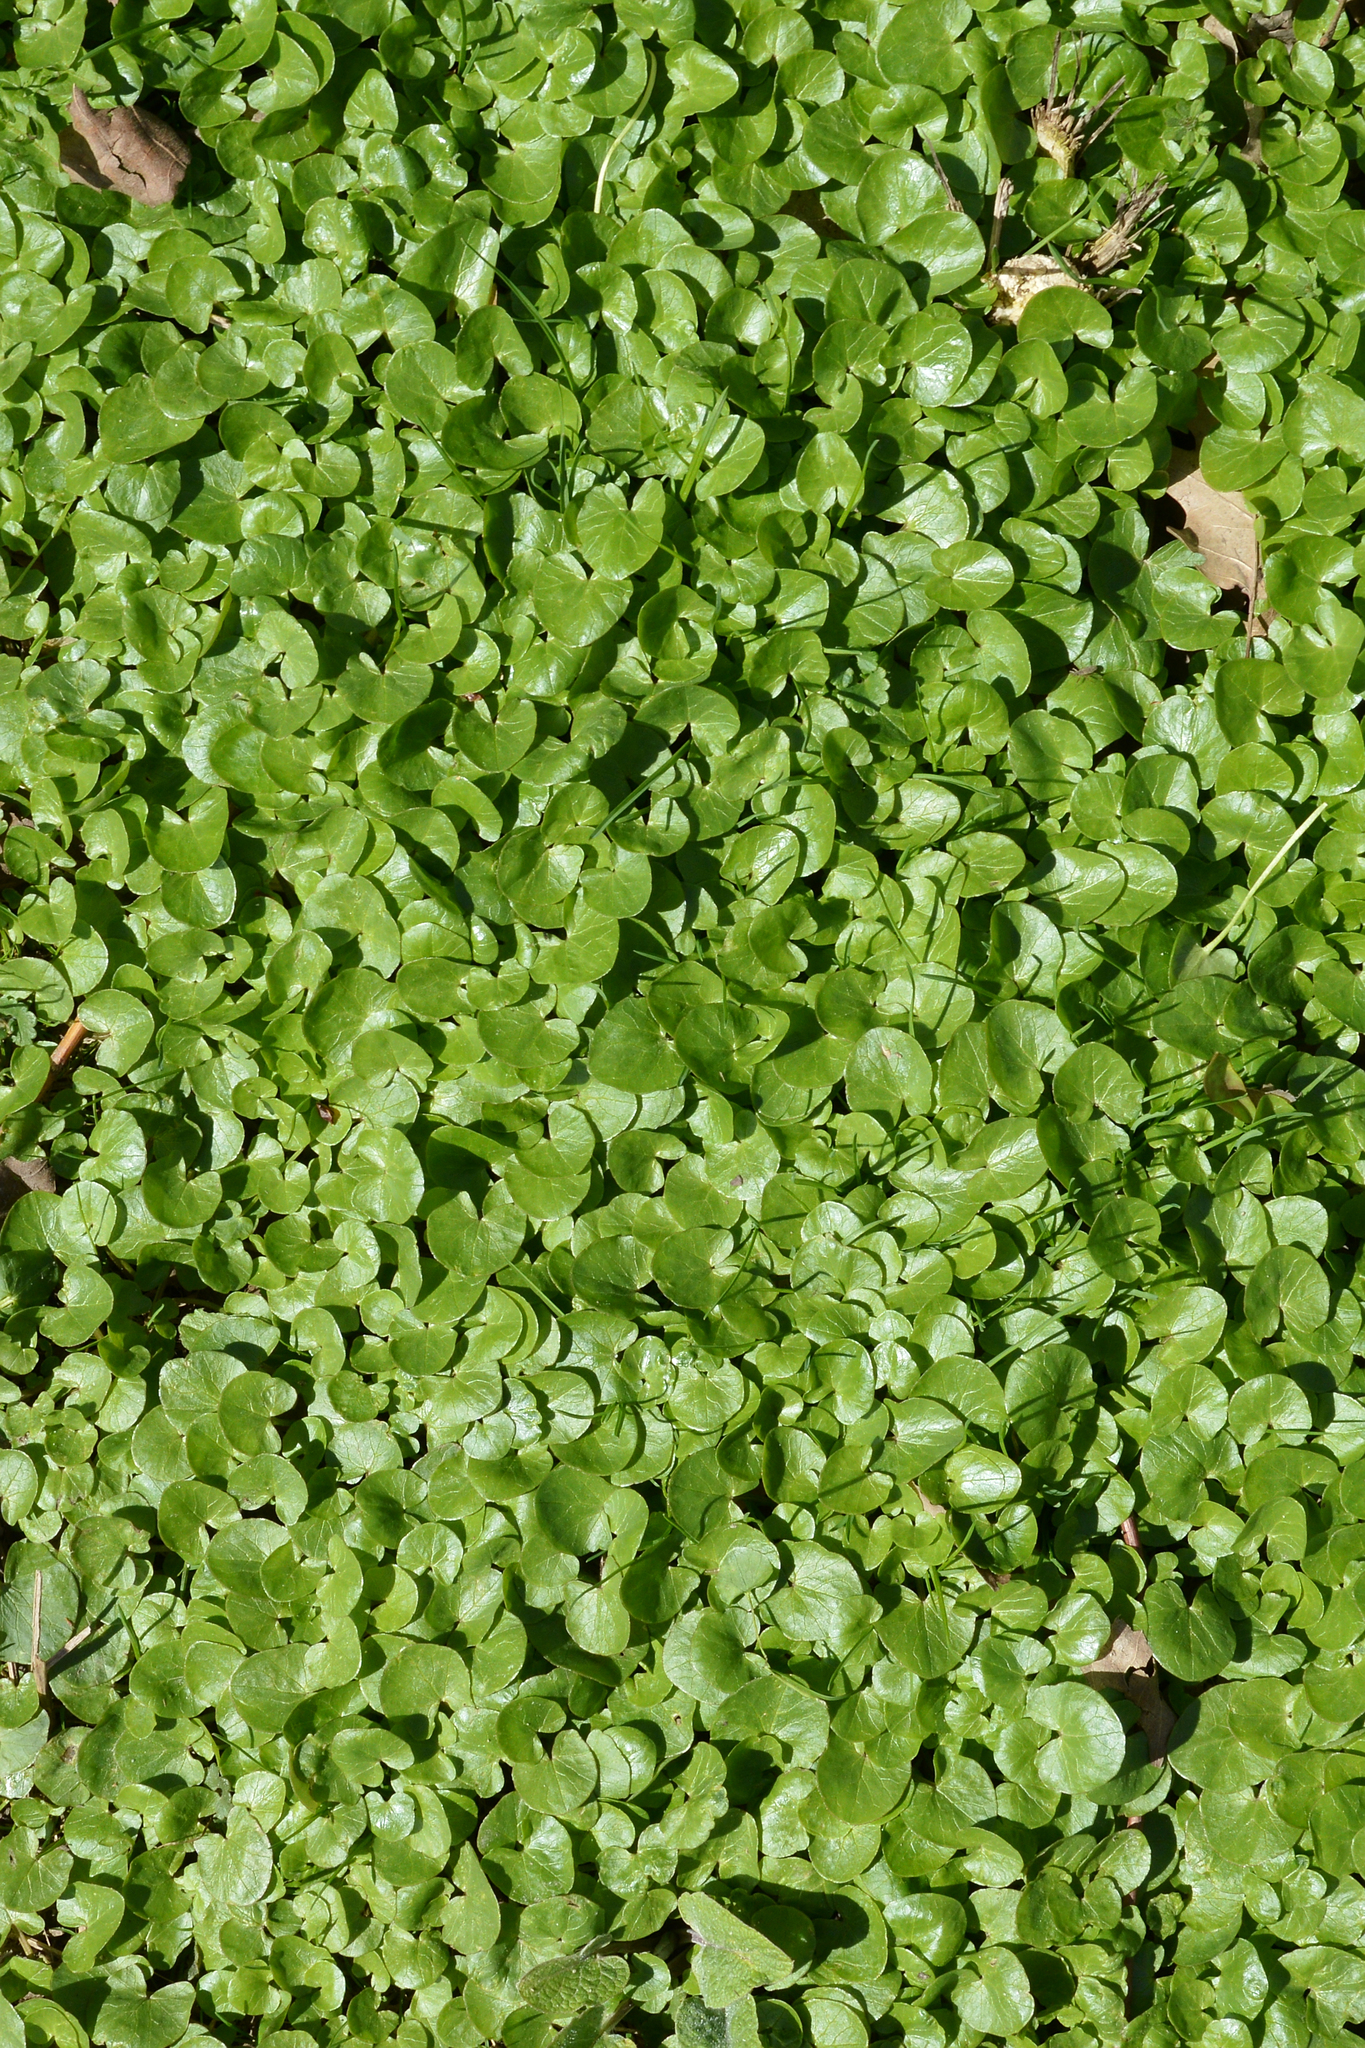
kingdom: Plantae
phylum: Tracheophyta
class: Magnoliopsida
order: Ranunculales
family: Ranunculaceae
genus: Ficaria
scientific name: Ficaria verna
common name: Lesser celandine
